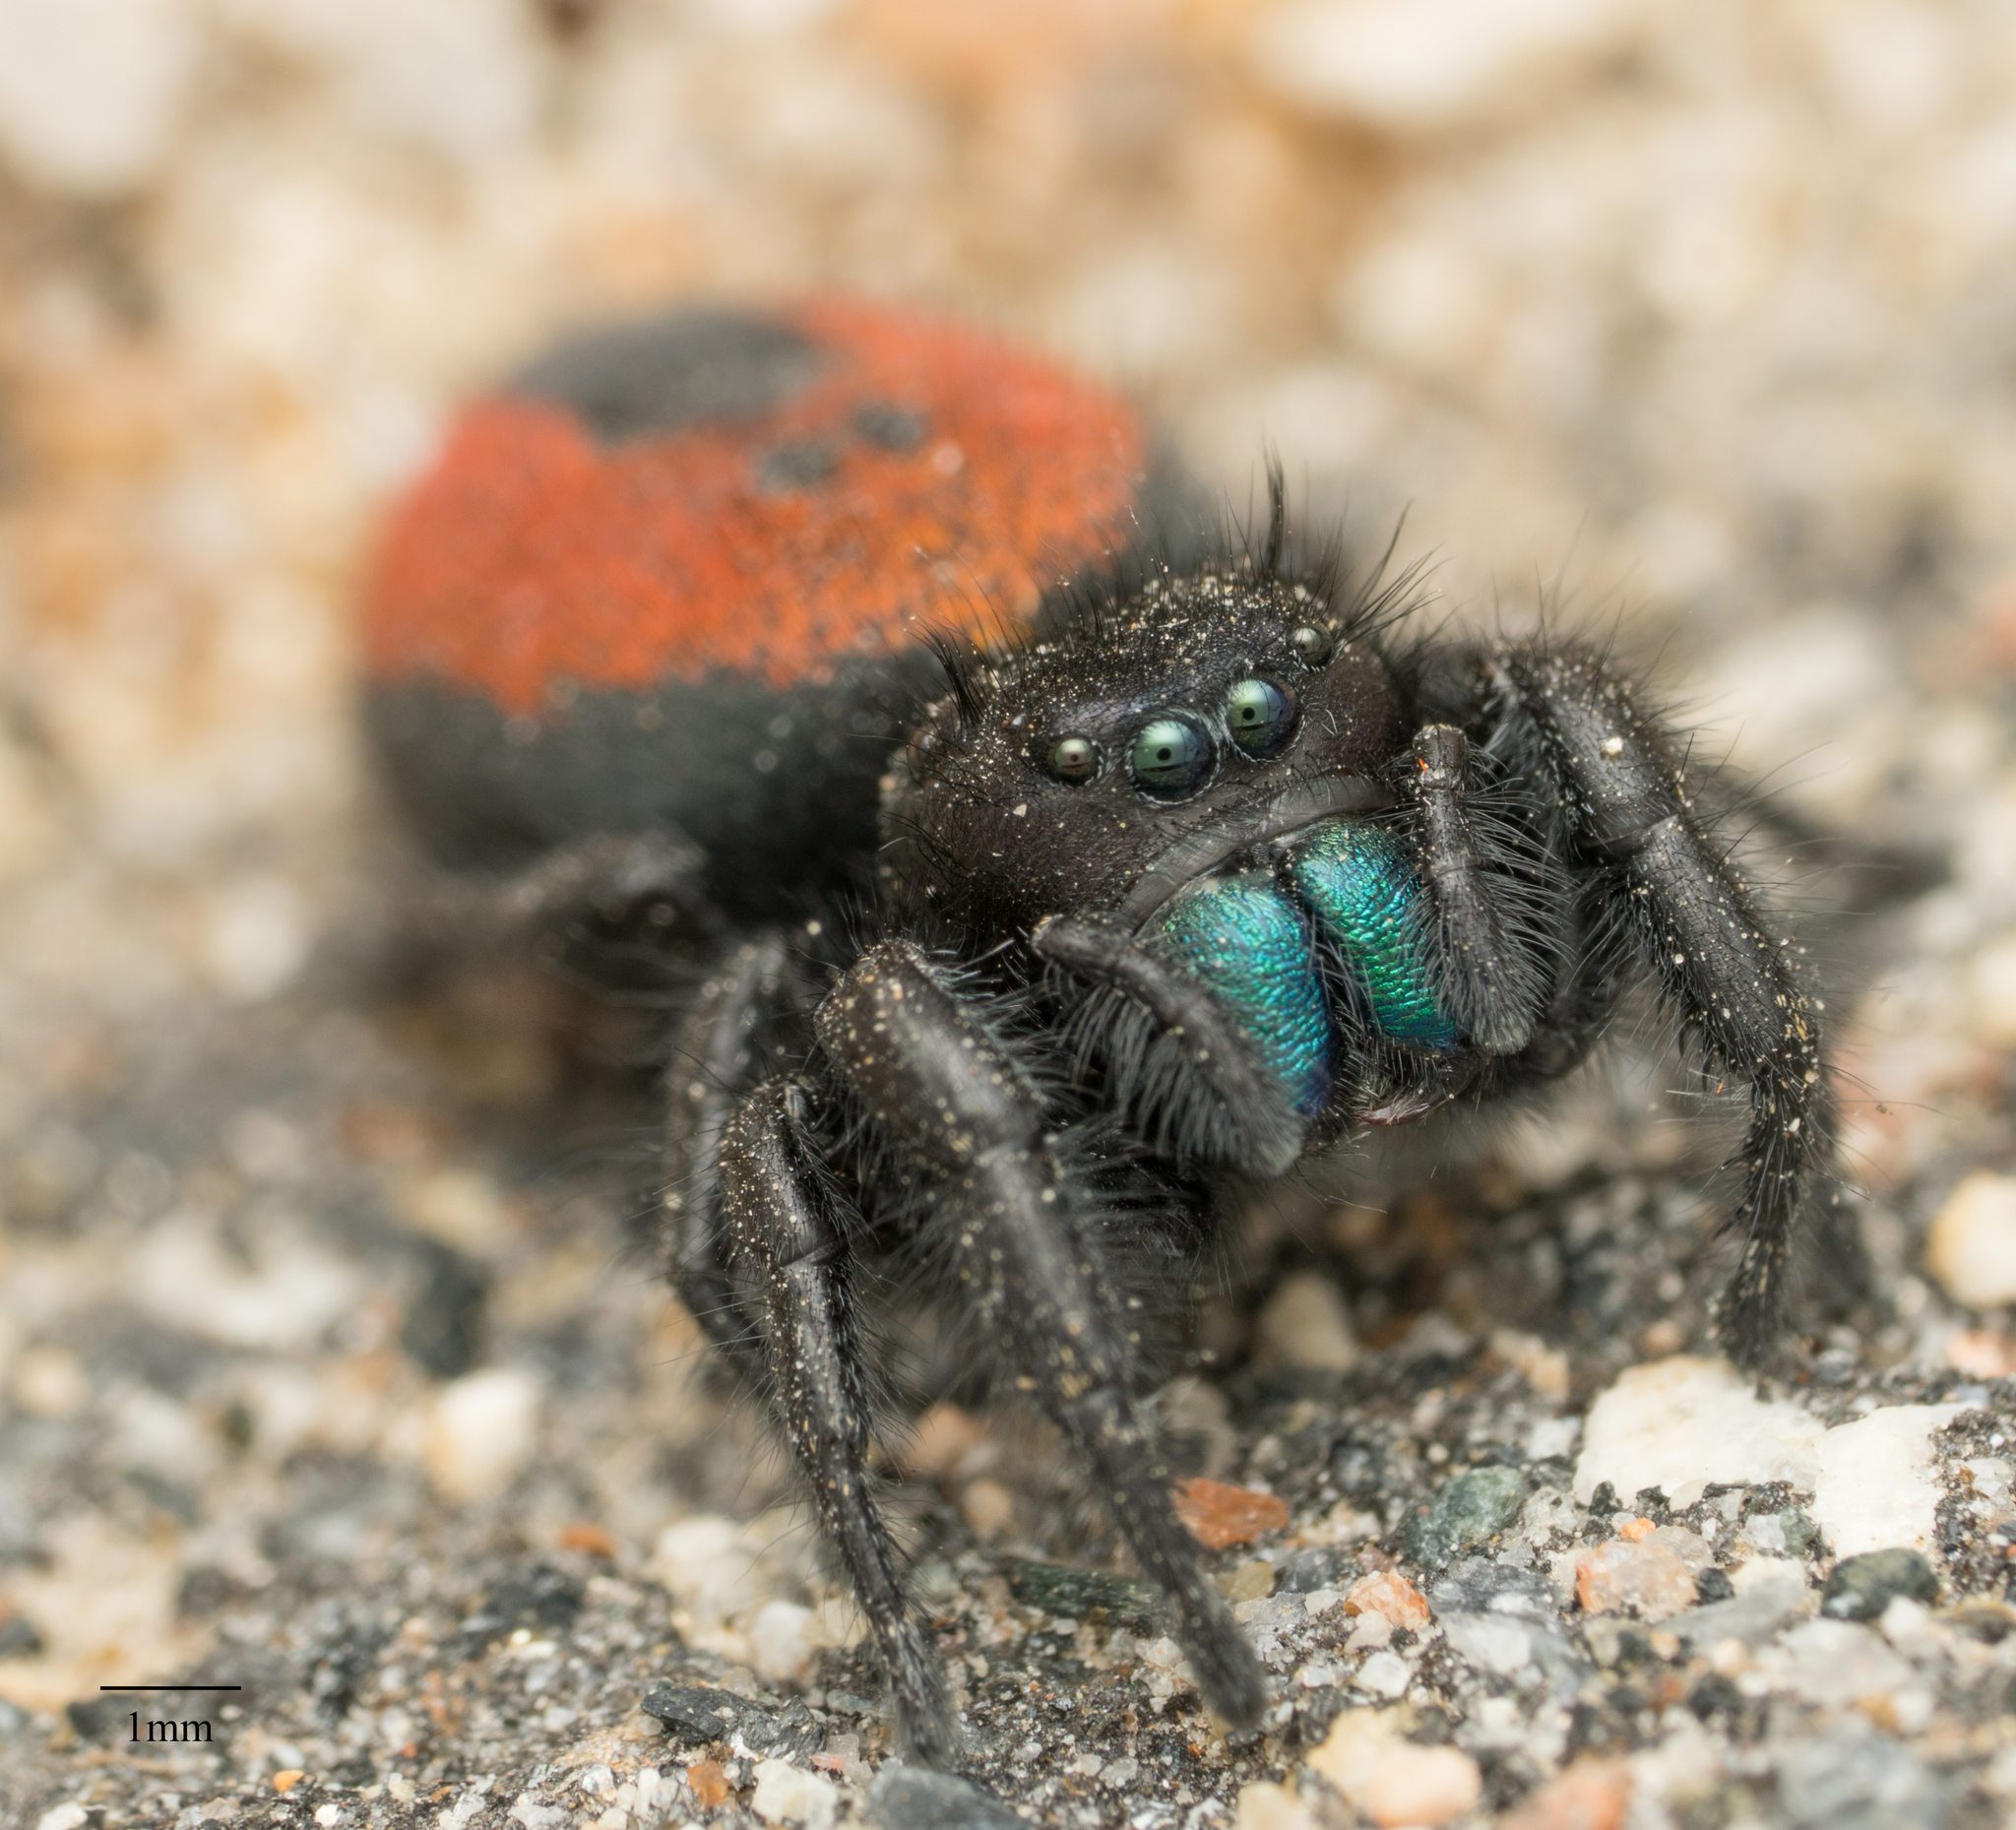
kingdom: Animalia
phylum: Arthropoda
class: Arachnida
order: Araneae
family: Salticidae
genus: Phidippus
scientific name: Phidippus johnsoni
